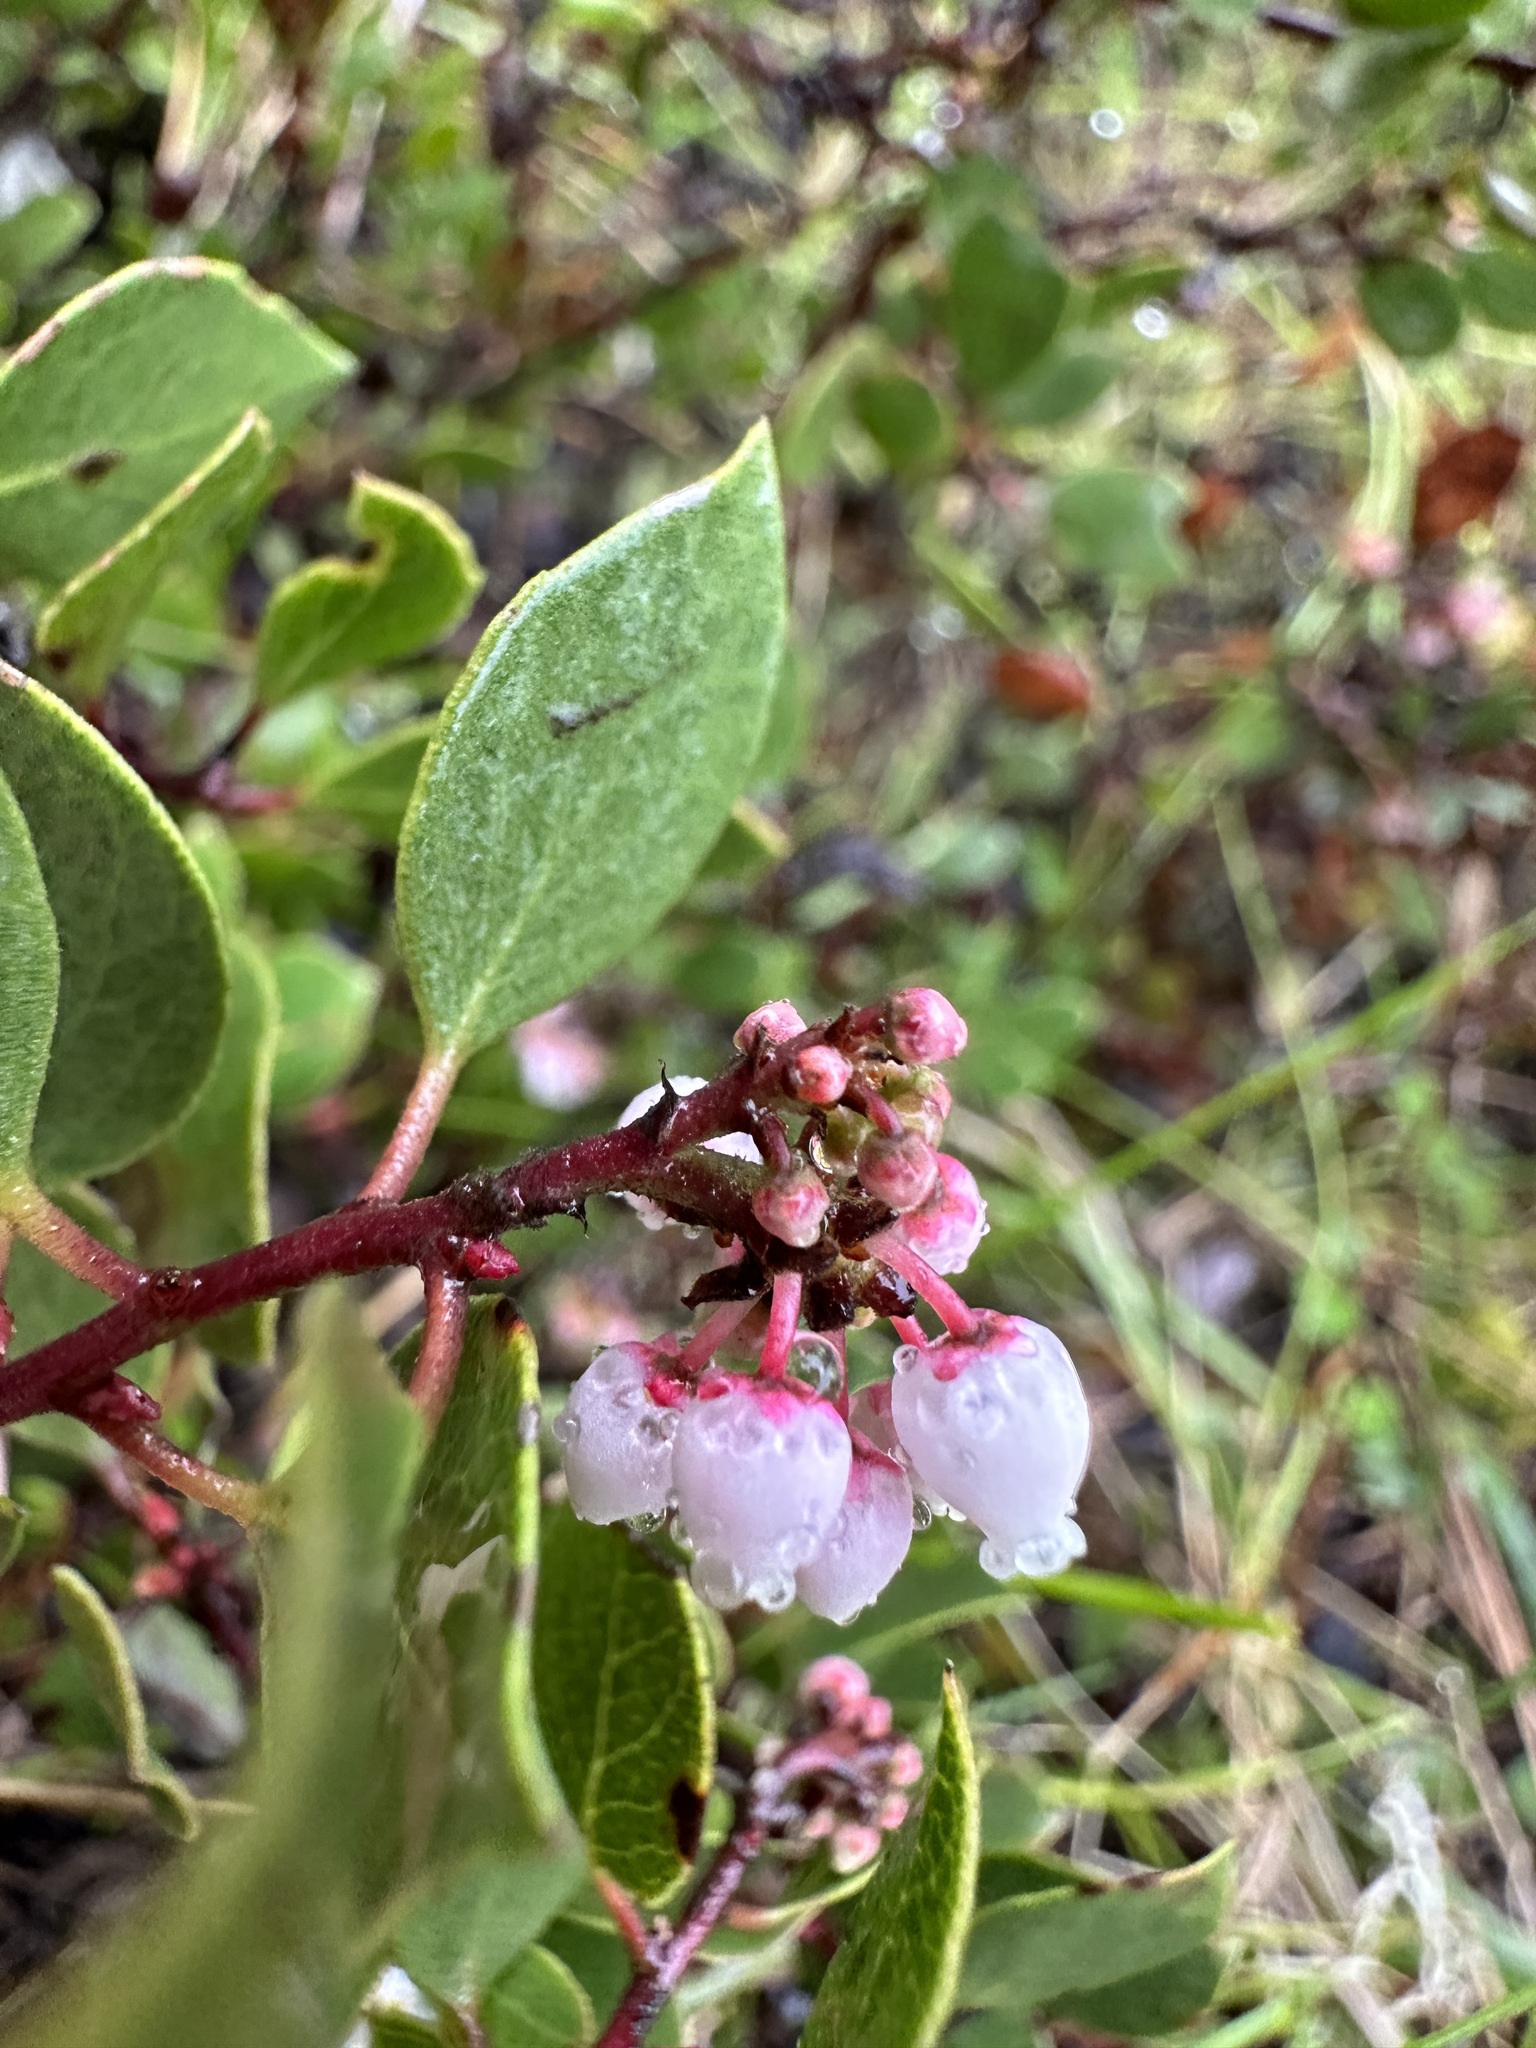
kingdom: Plantae
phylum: Tracheophyta
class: Magnoliopsida
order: Ericales
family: Ericaceae
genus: Arctostaphylos
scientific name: Arctostaphylos hookeri
